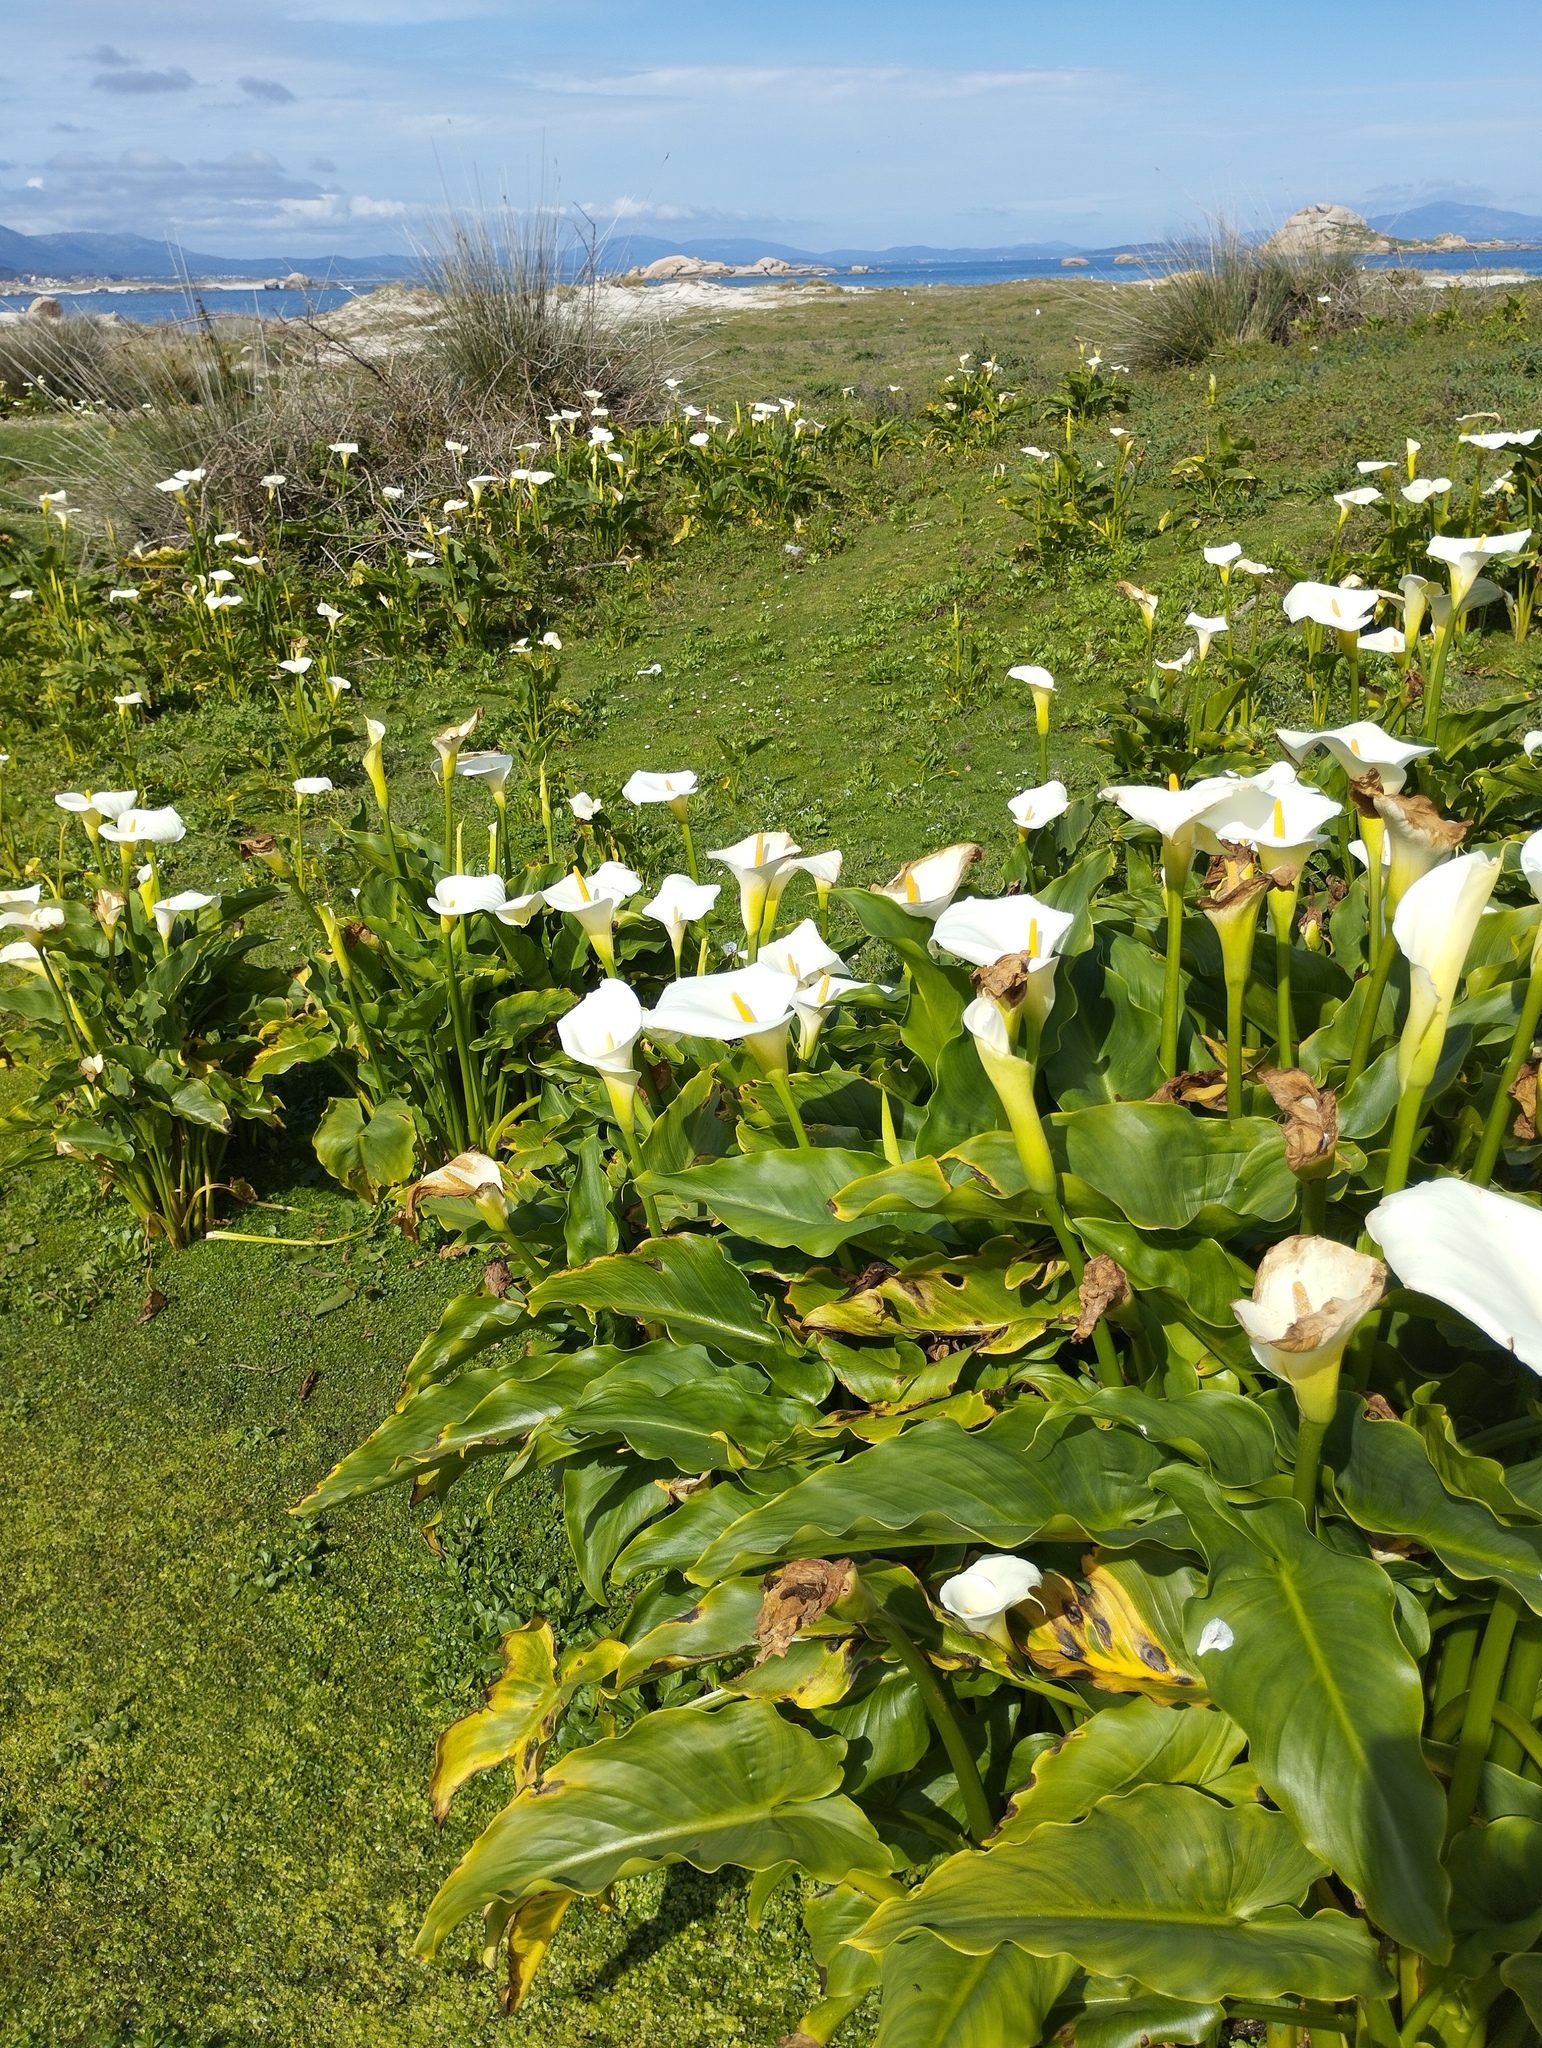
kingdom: Plantae
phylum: Tracheophyta
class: Liliopsida
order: Alismatales
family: Araceae
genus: Zantedeschia
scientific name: Zantedeschia aethiopica
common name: Altar-lily
